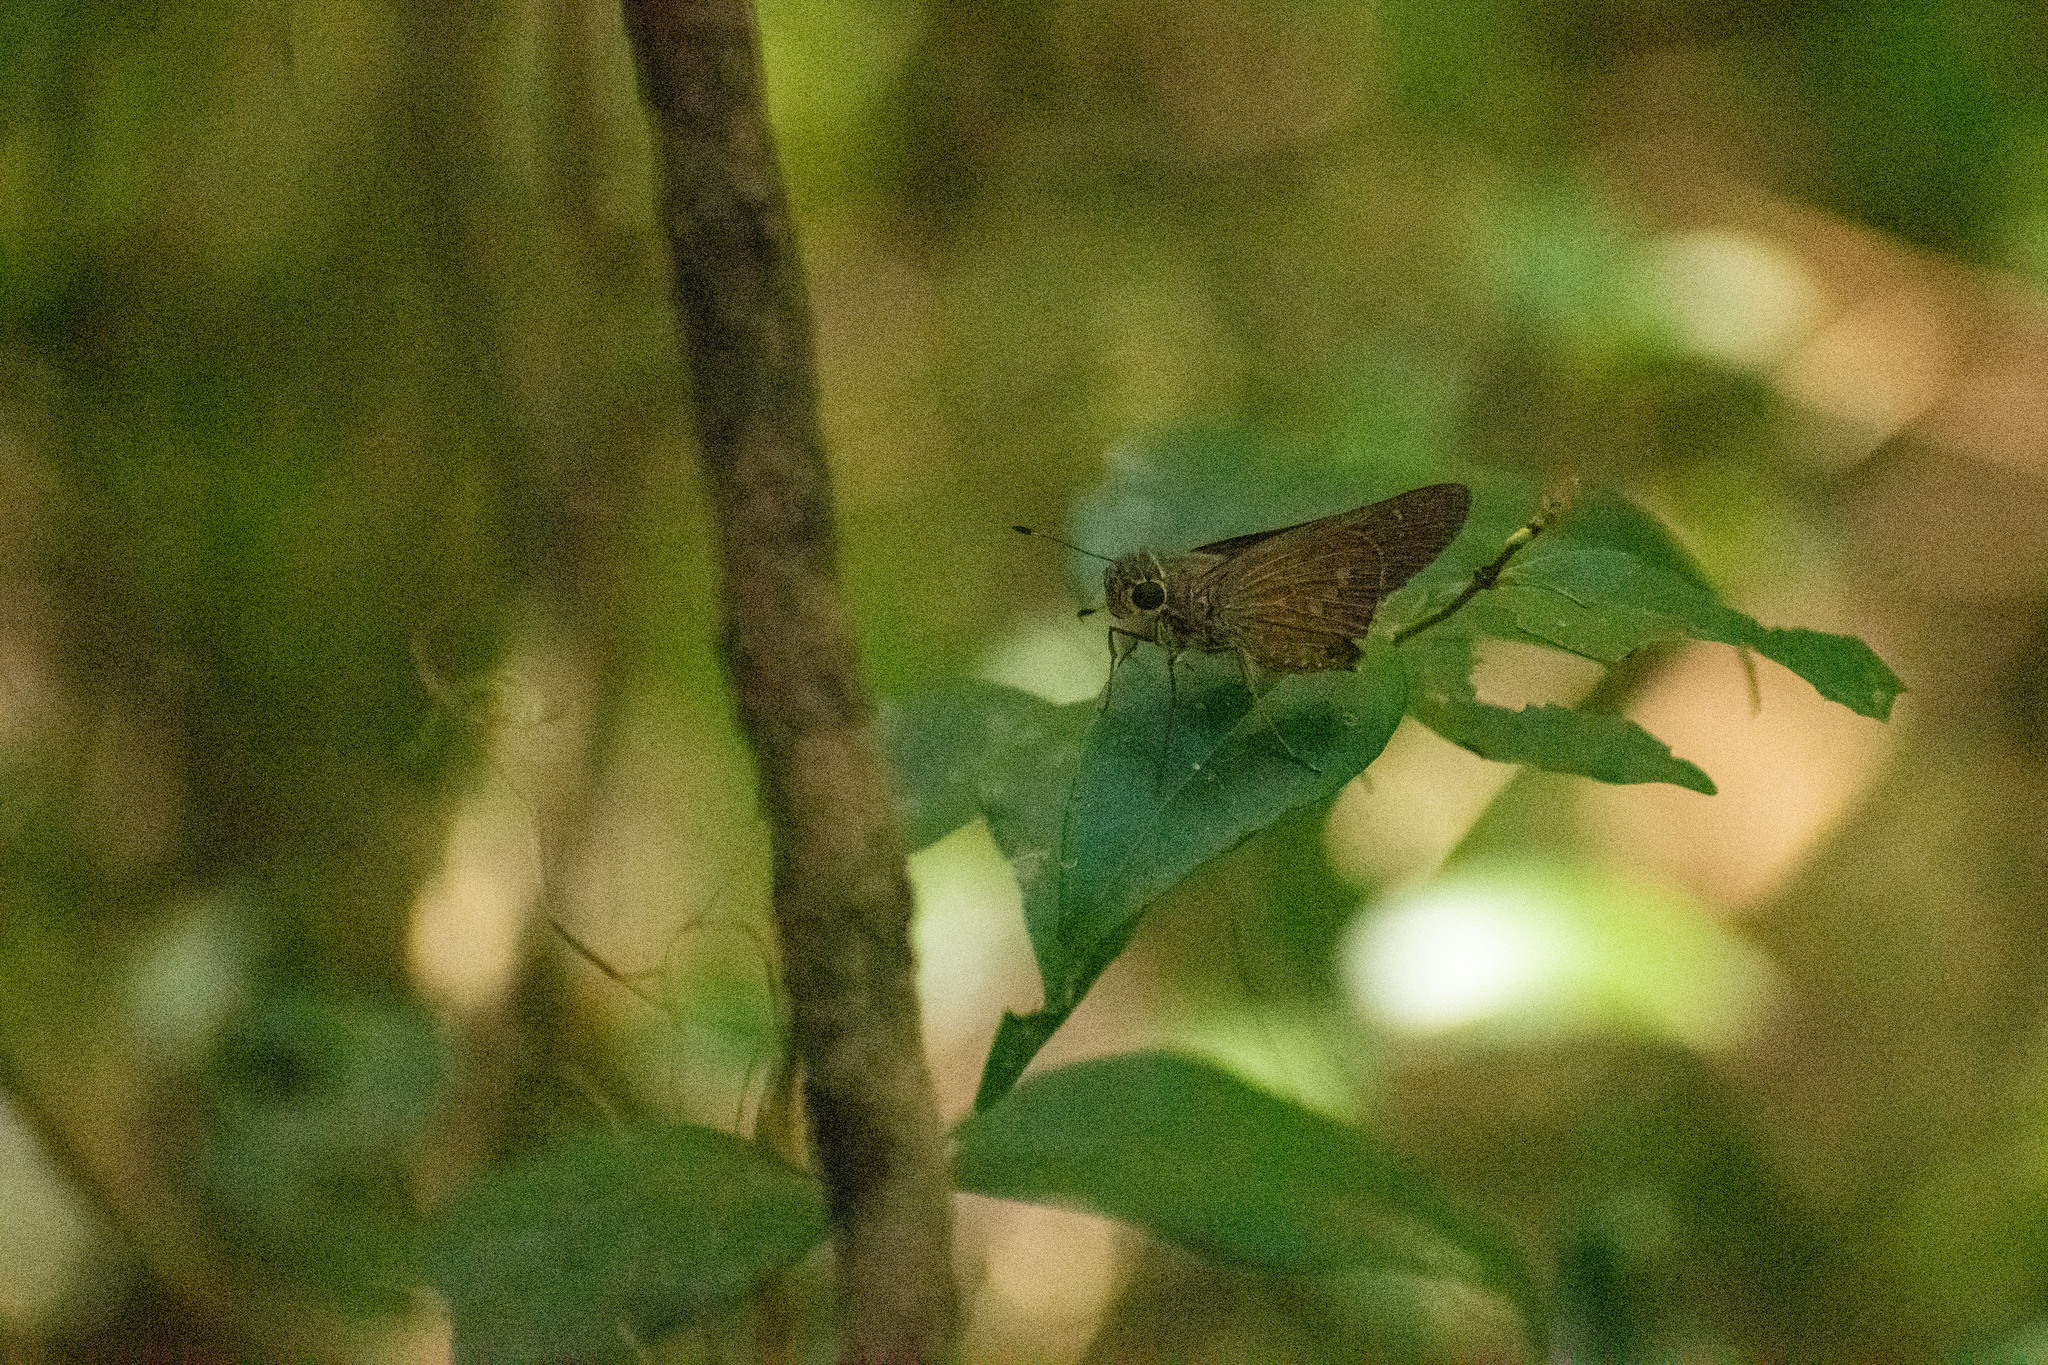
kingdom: Animalia
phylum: Arthropoda
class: Insecta
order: Lepidoptera
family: Hesperiidae
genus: Calpodes
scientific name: Calpodes ethlius
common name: Brazilian skipper
